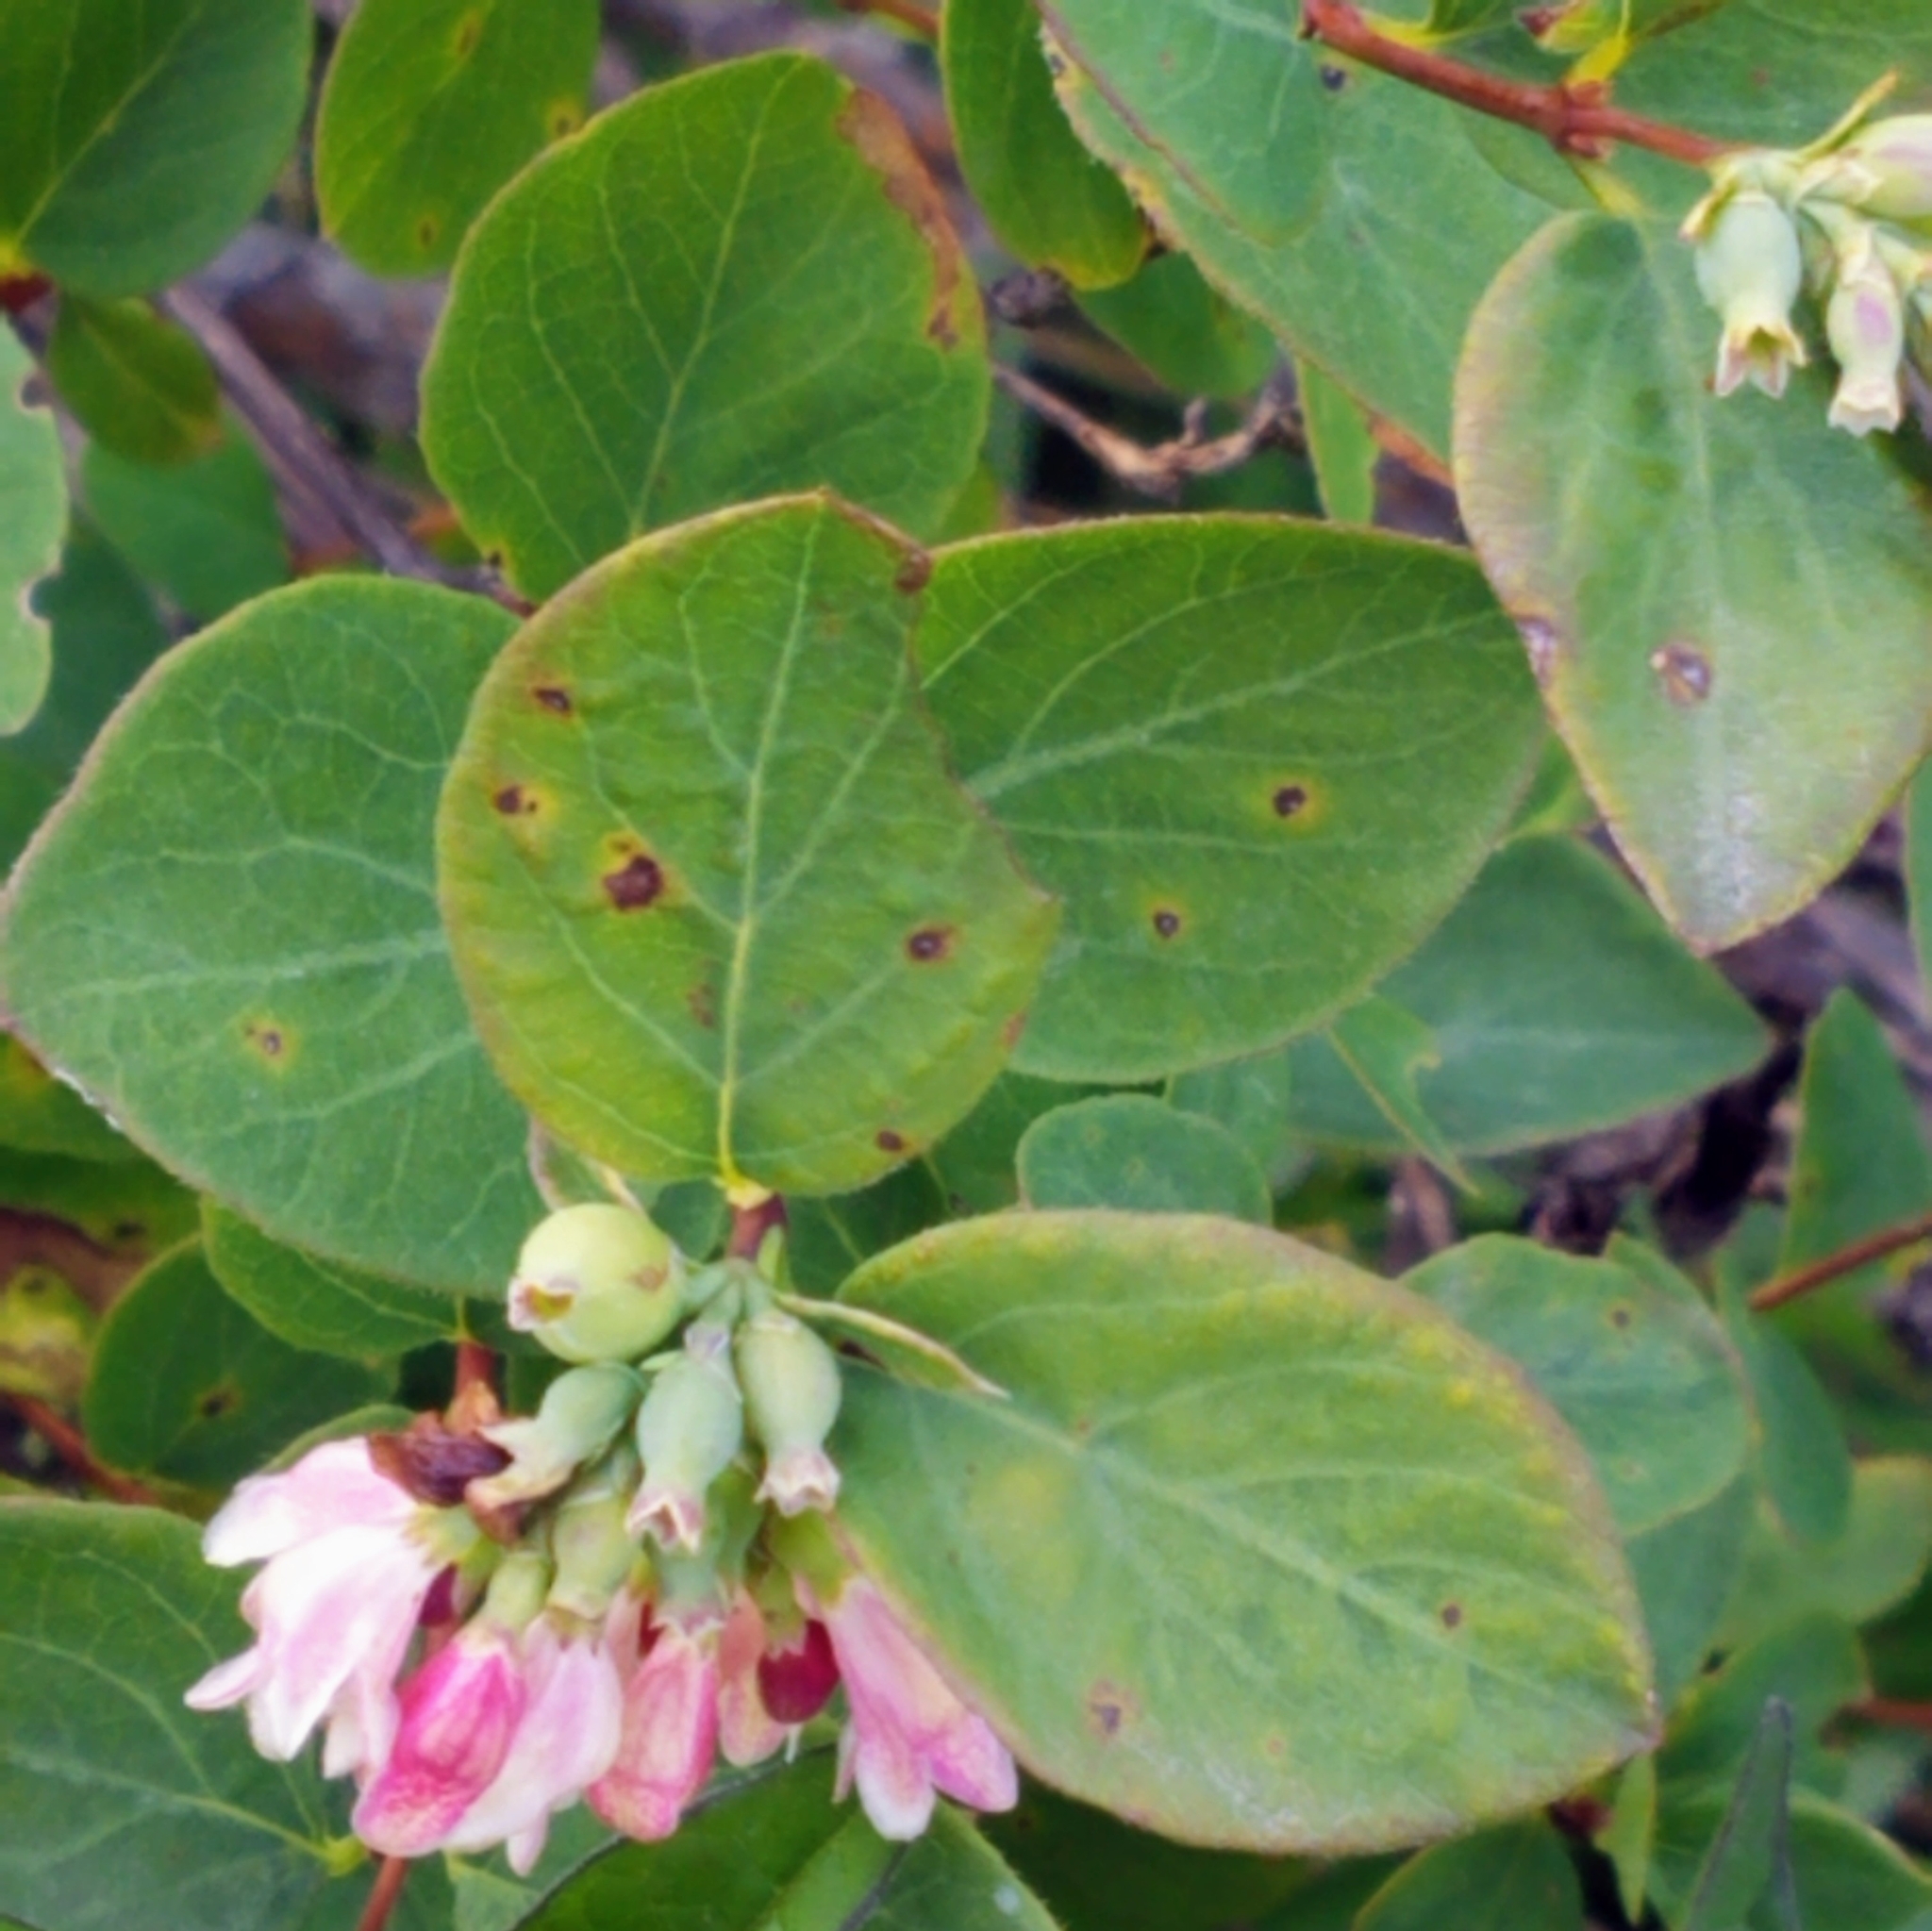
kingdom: Plantae
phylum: Tracheophyta
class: Magnoliopsida
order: Dipsacales
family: Caprifoliaceae
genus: Symphoricarpos
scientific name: Symphoricarpos albus
